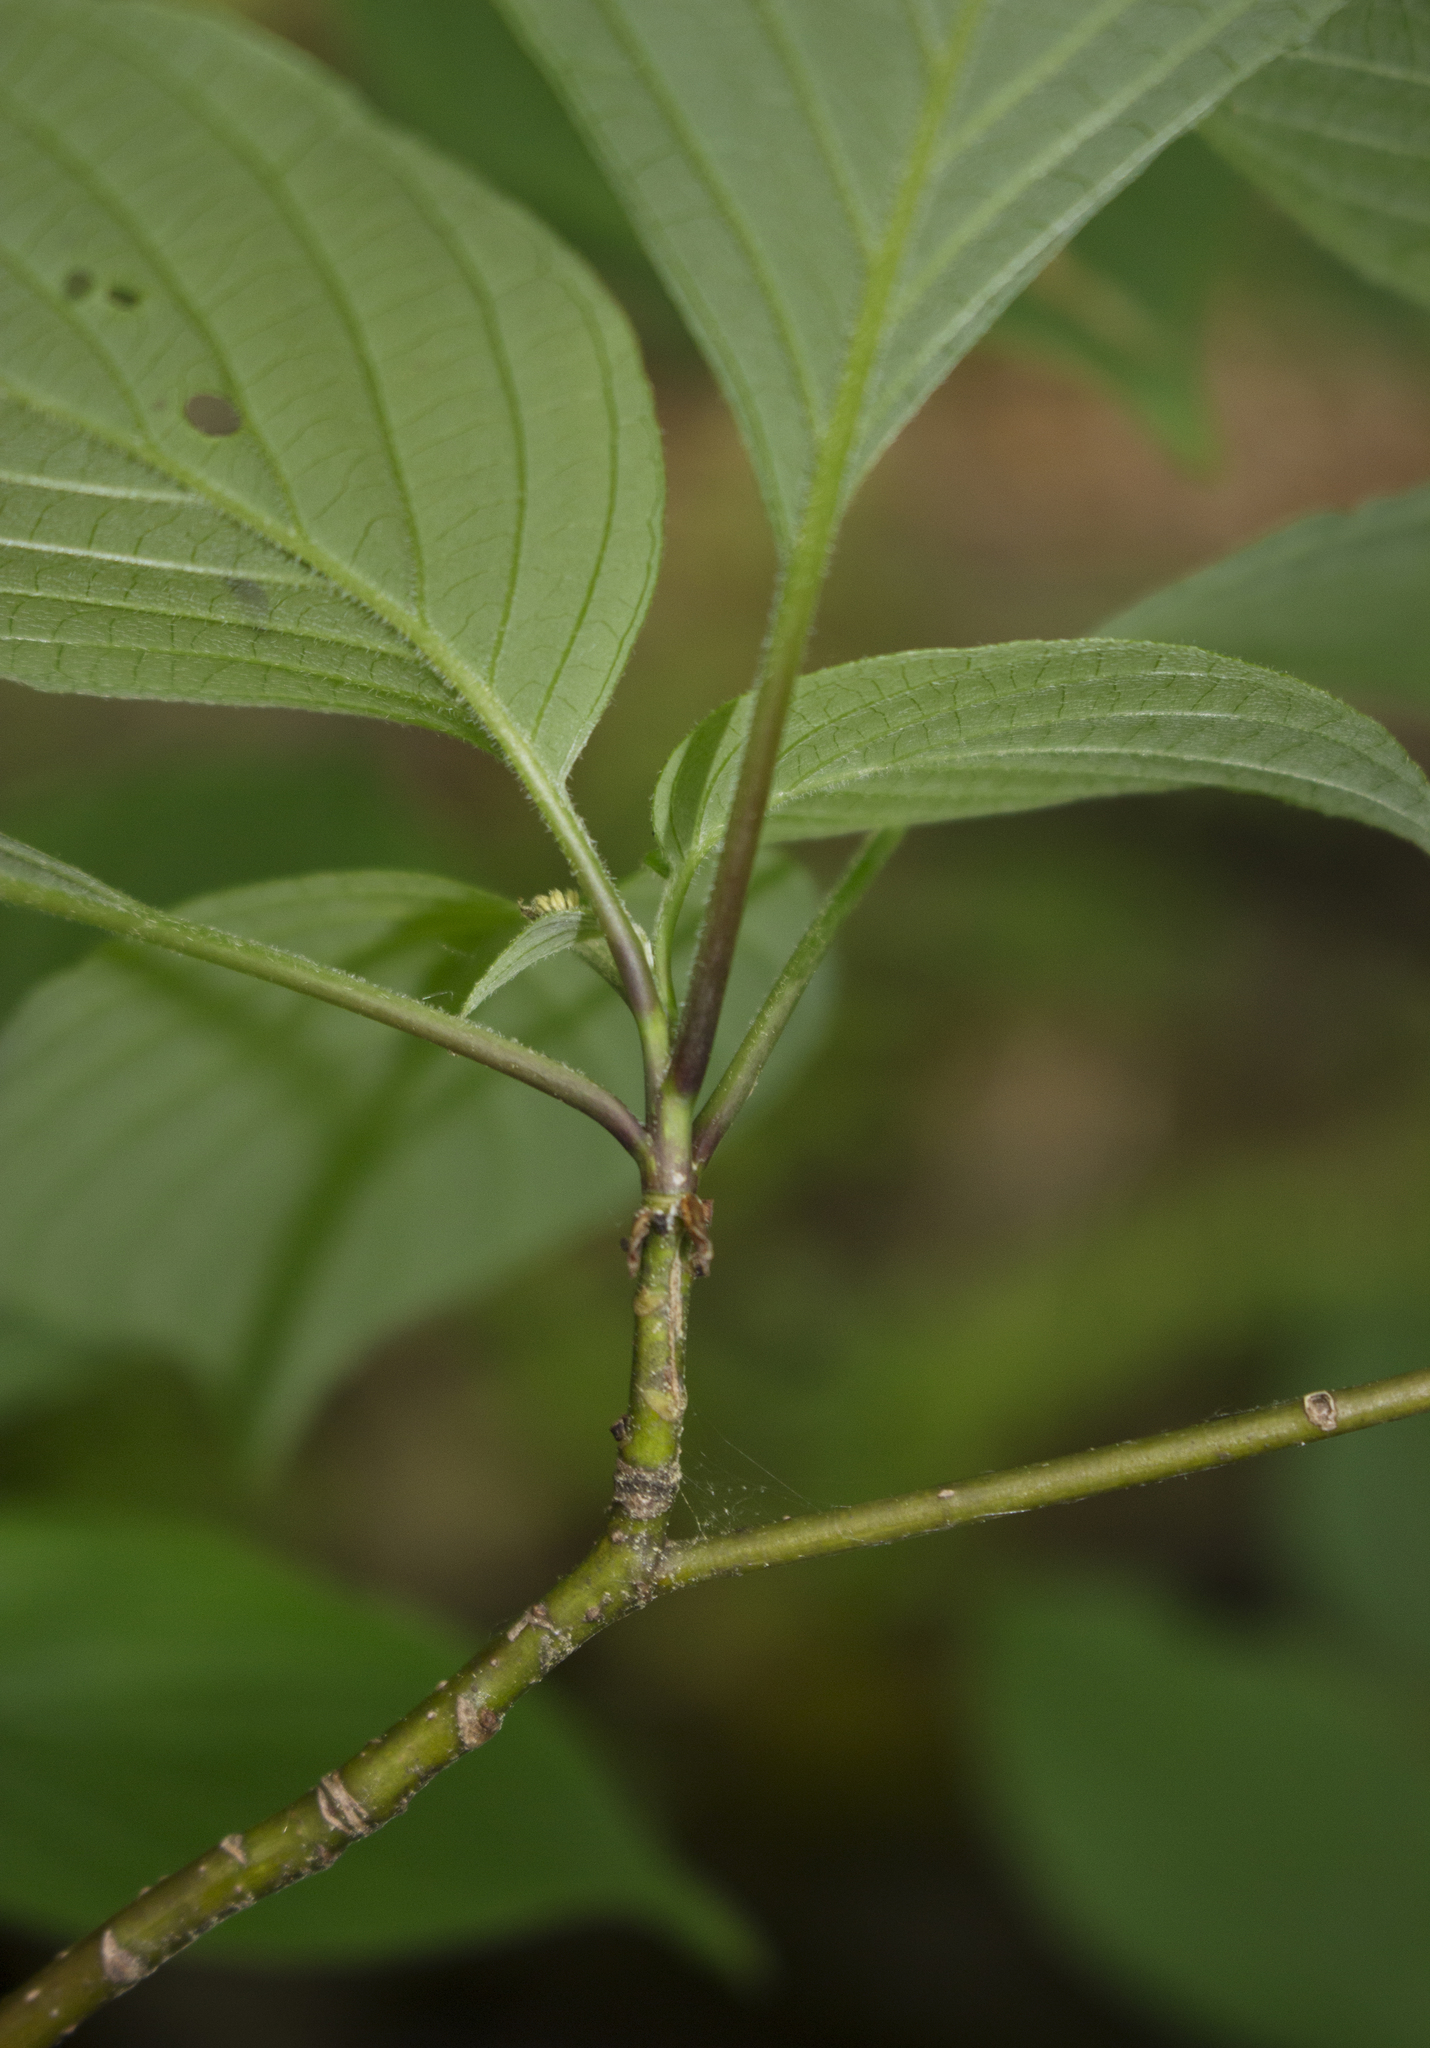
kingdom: Plantae
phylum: Tracheophyta
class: Magnoliopsida
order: Cornales
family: Cornaceae
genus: Cornus
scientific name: Cornus alternifolia
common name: Pagoda dogwood
